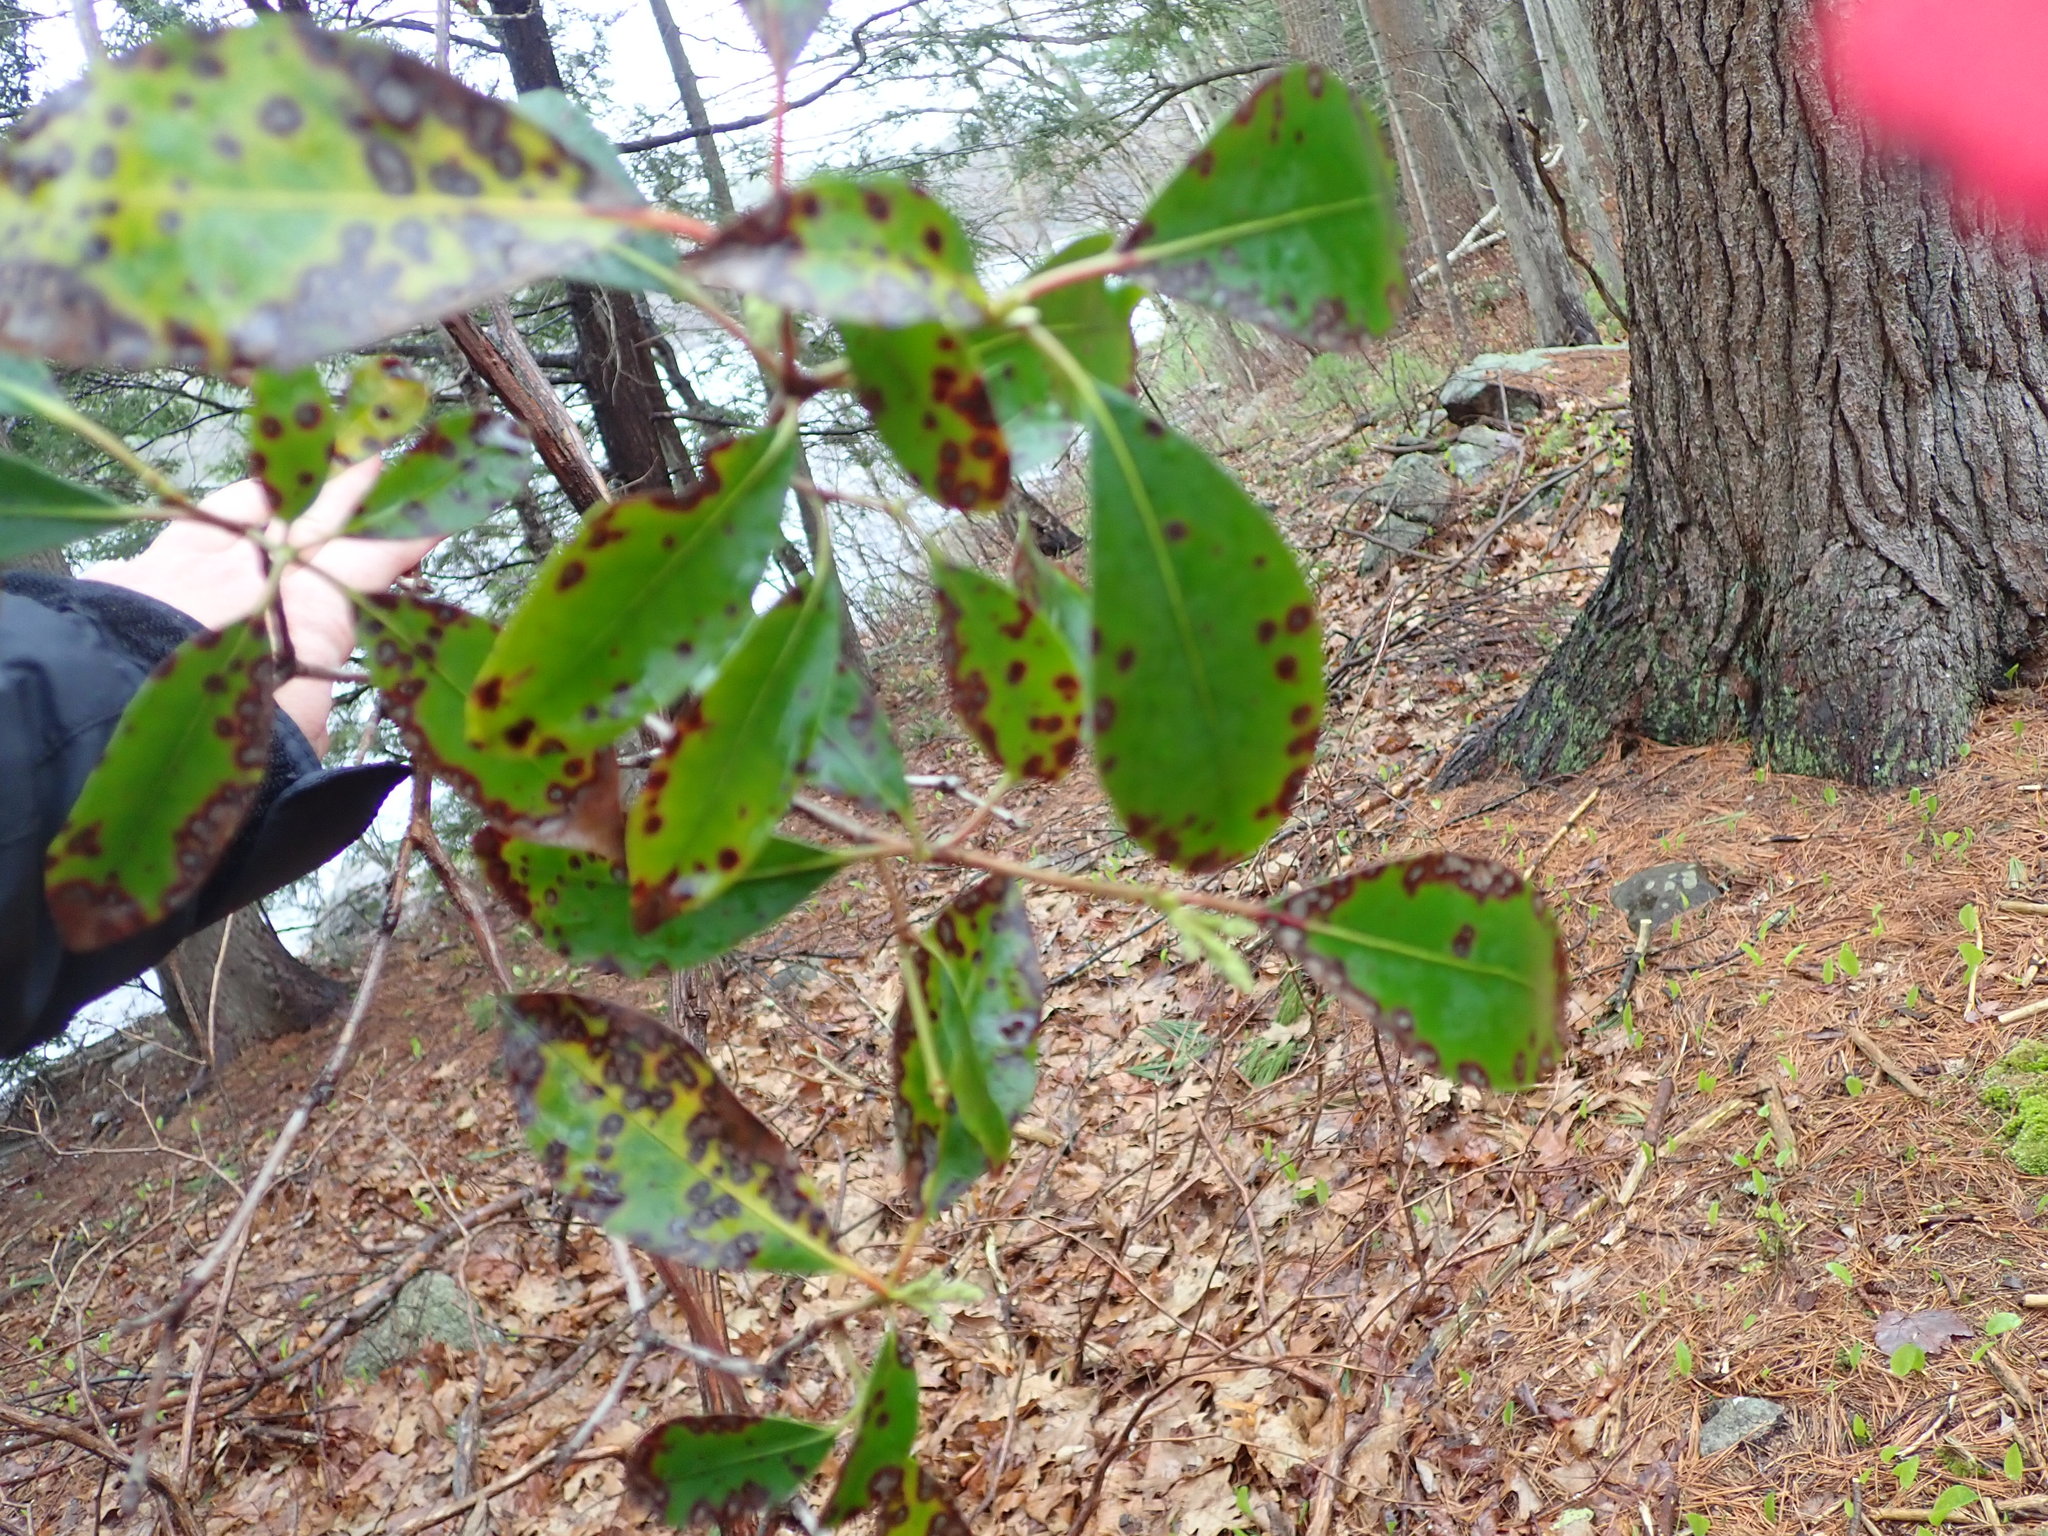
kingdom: Plantae
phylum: Tracheophyta
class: Magnoliopsida
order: Ericales
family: Ericaceae
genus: Kalmia
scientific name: Kalmia latifolia
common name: Mountain-laurel
